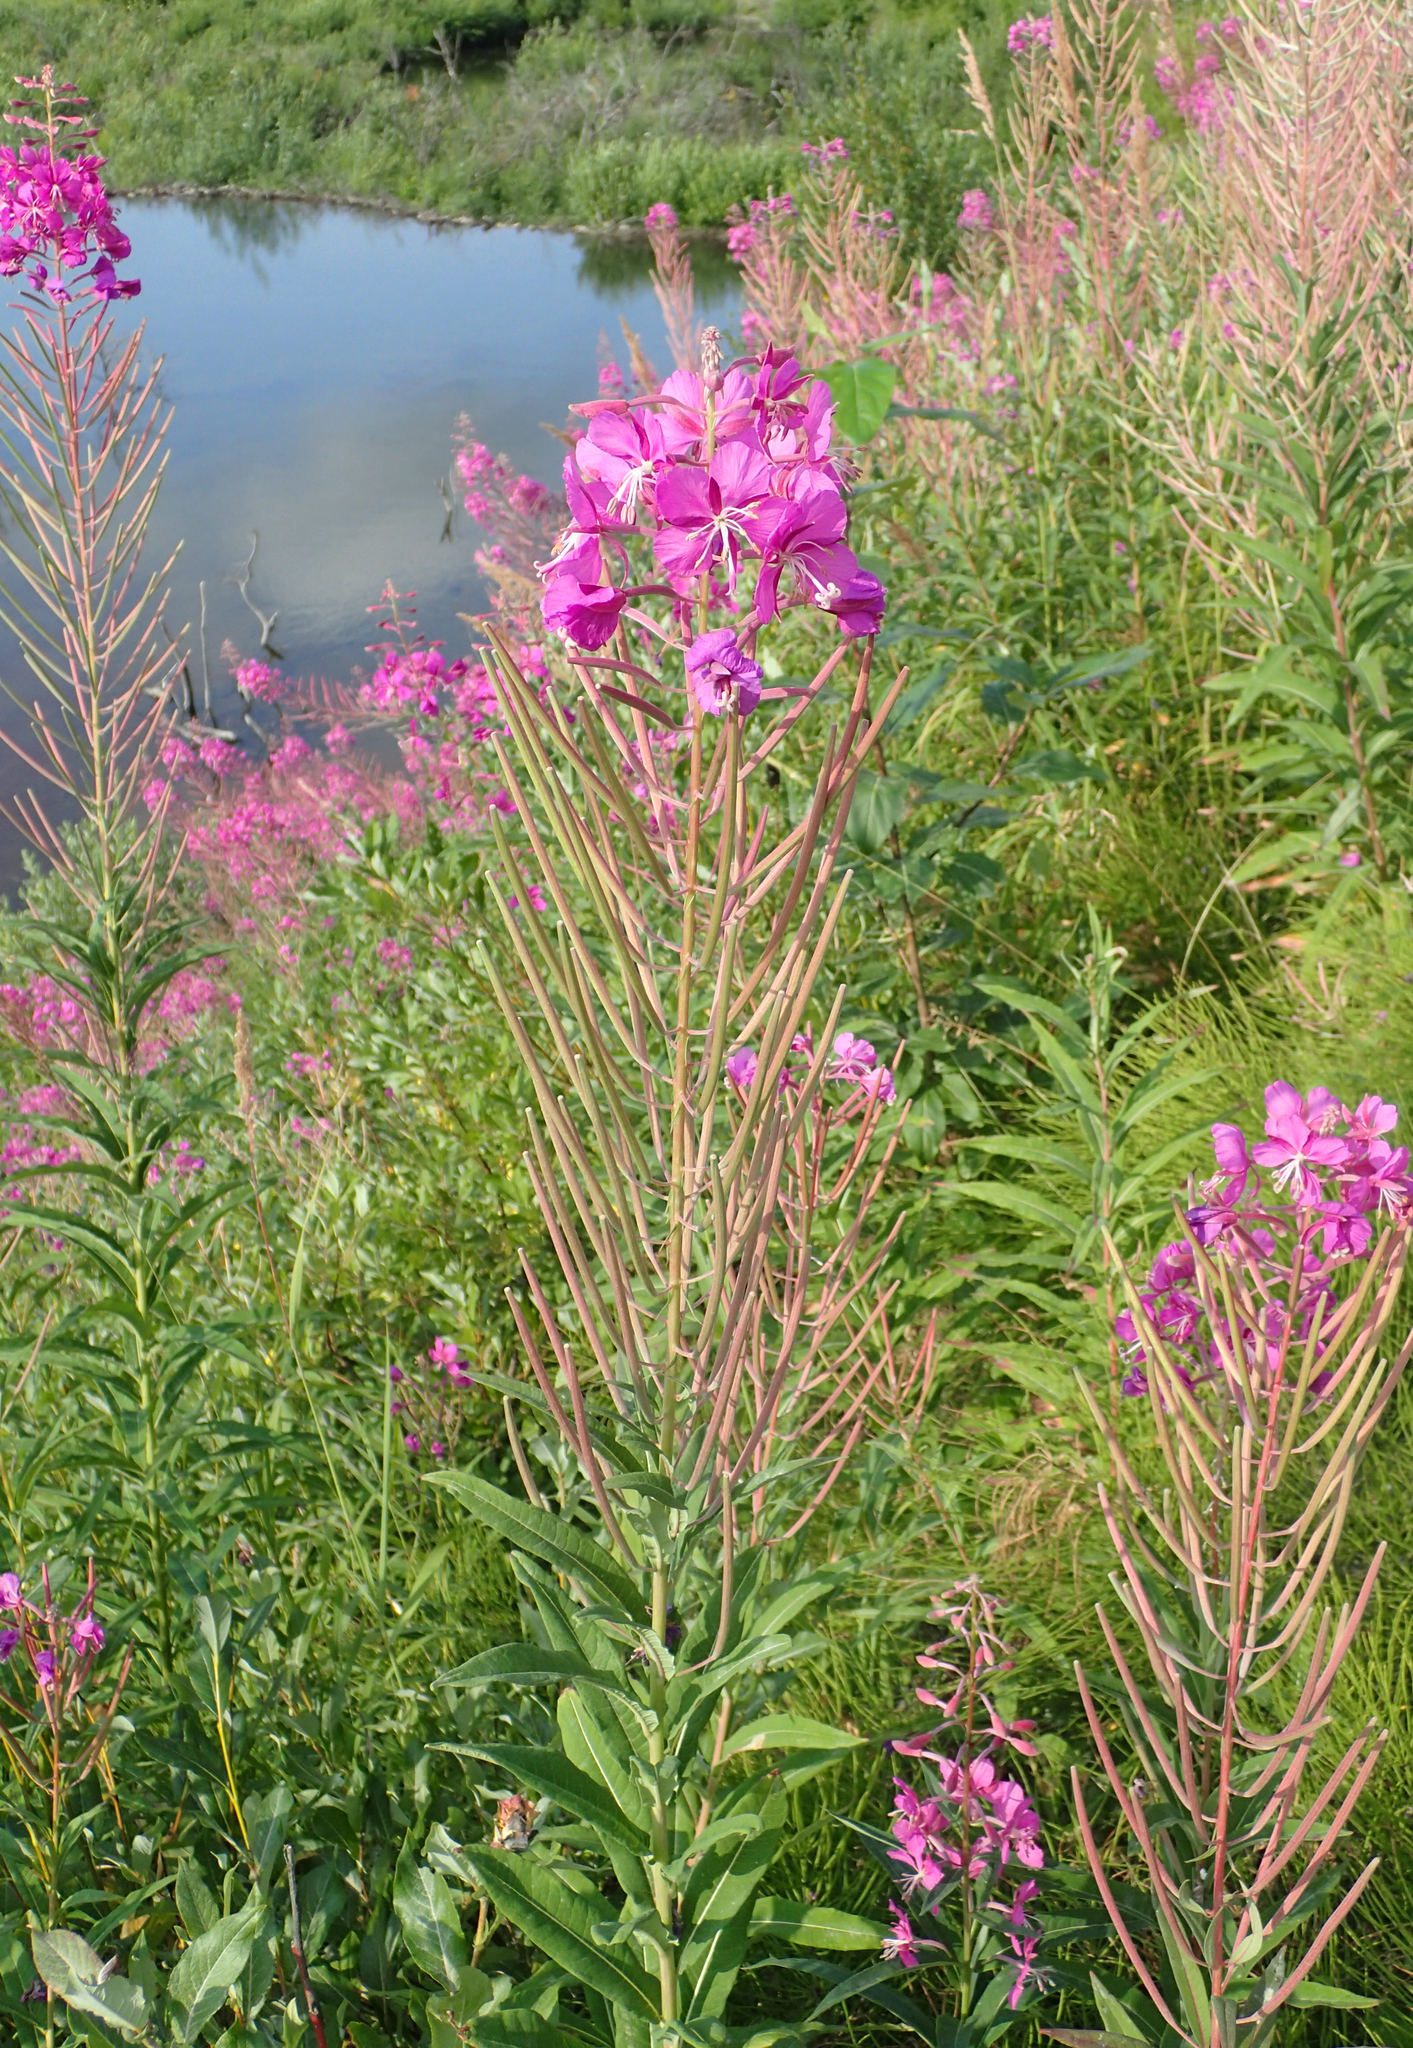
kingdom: Plantae
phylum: Tracheophyta
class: Magnoliopsida
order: Myrtales
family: Onagraceae
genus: Chamaenerion
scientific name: Chamaenerion angustifolium
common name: Fireweed
